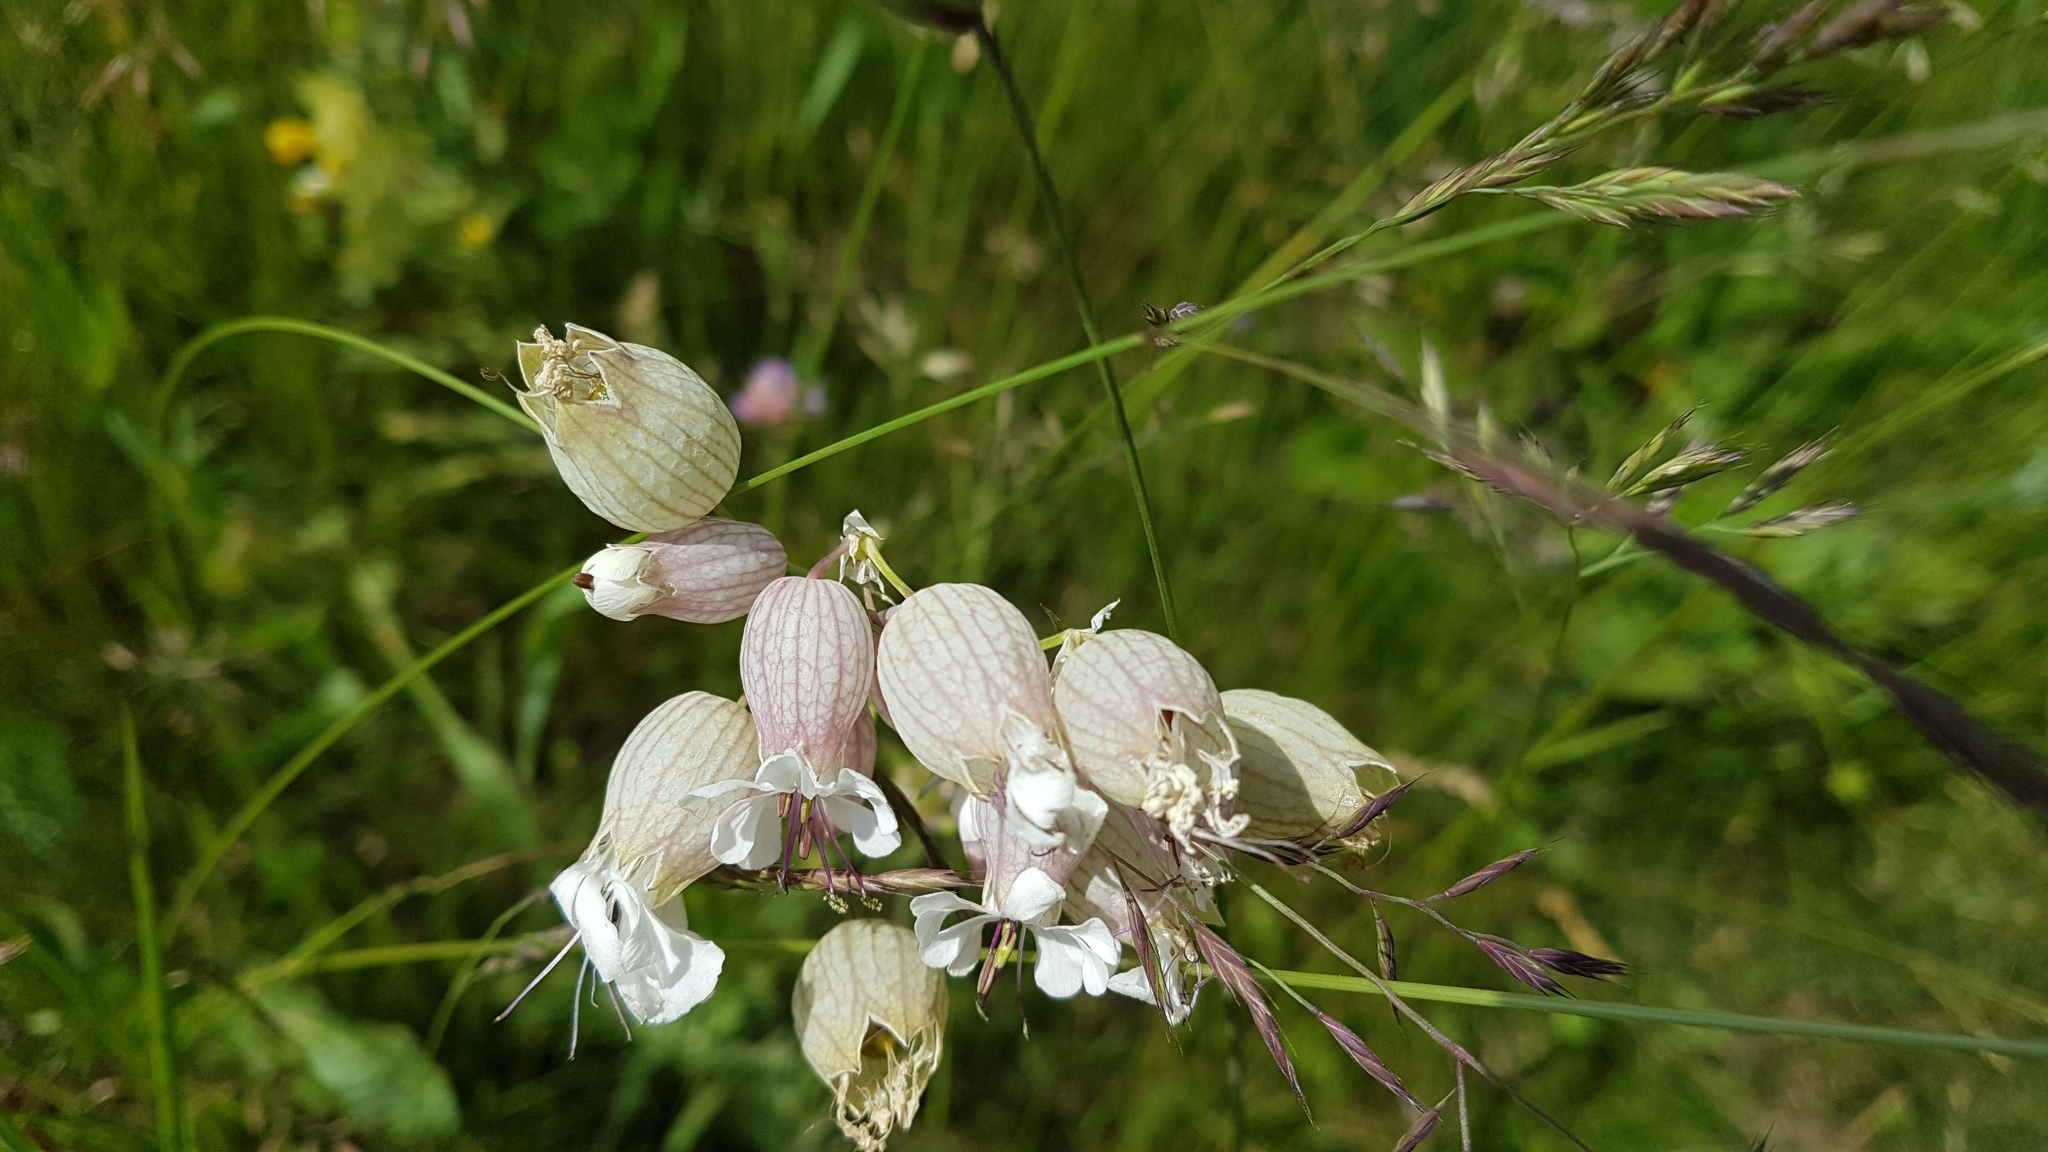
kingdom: Plantae
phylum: Tracheophyta
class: Magnoliopsida
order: Caryophyllales
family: Caryophyllaceae
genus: Silene
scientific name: Silene vulgaris
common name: Bladder campion
